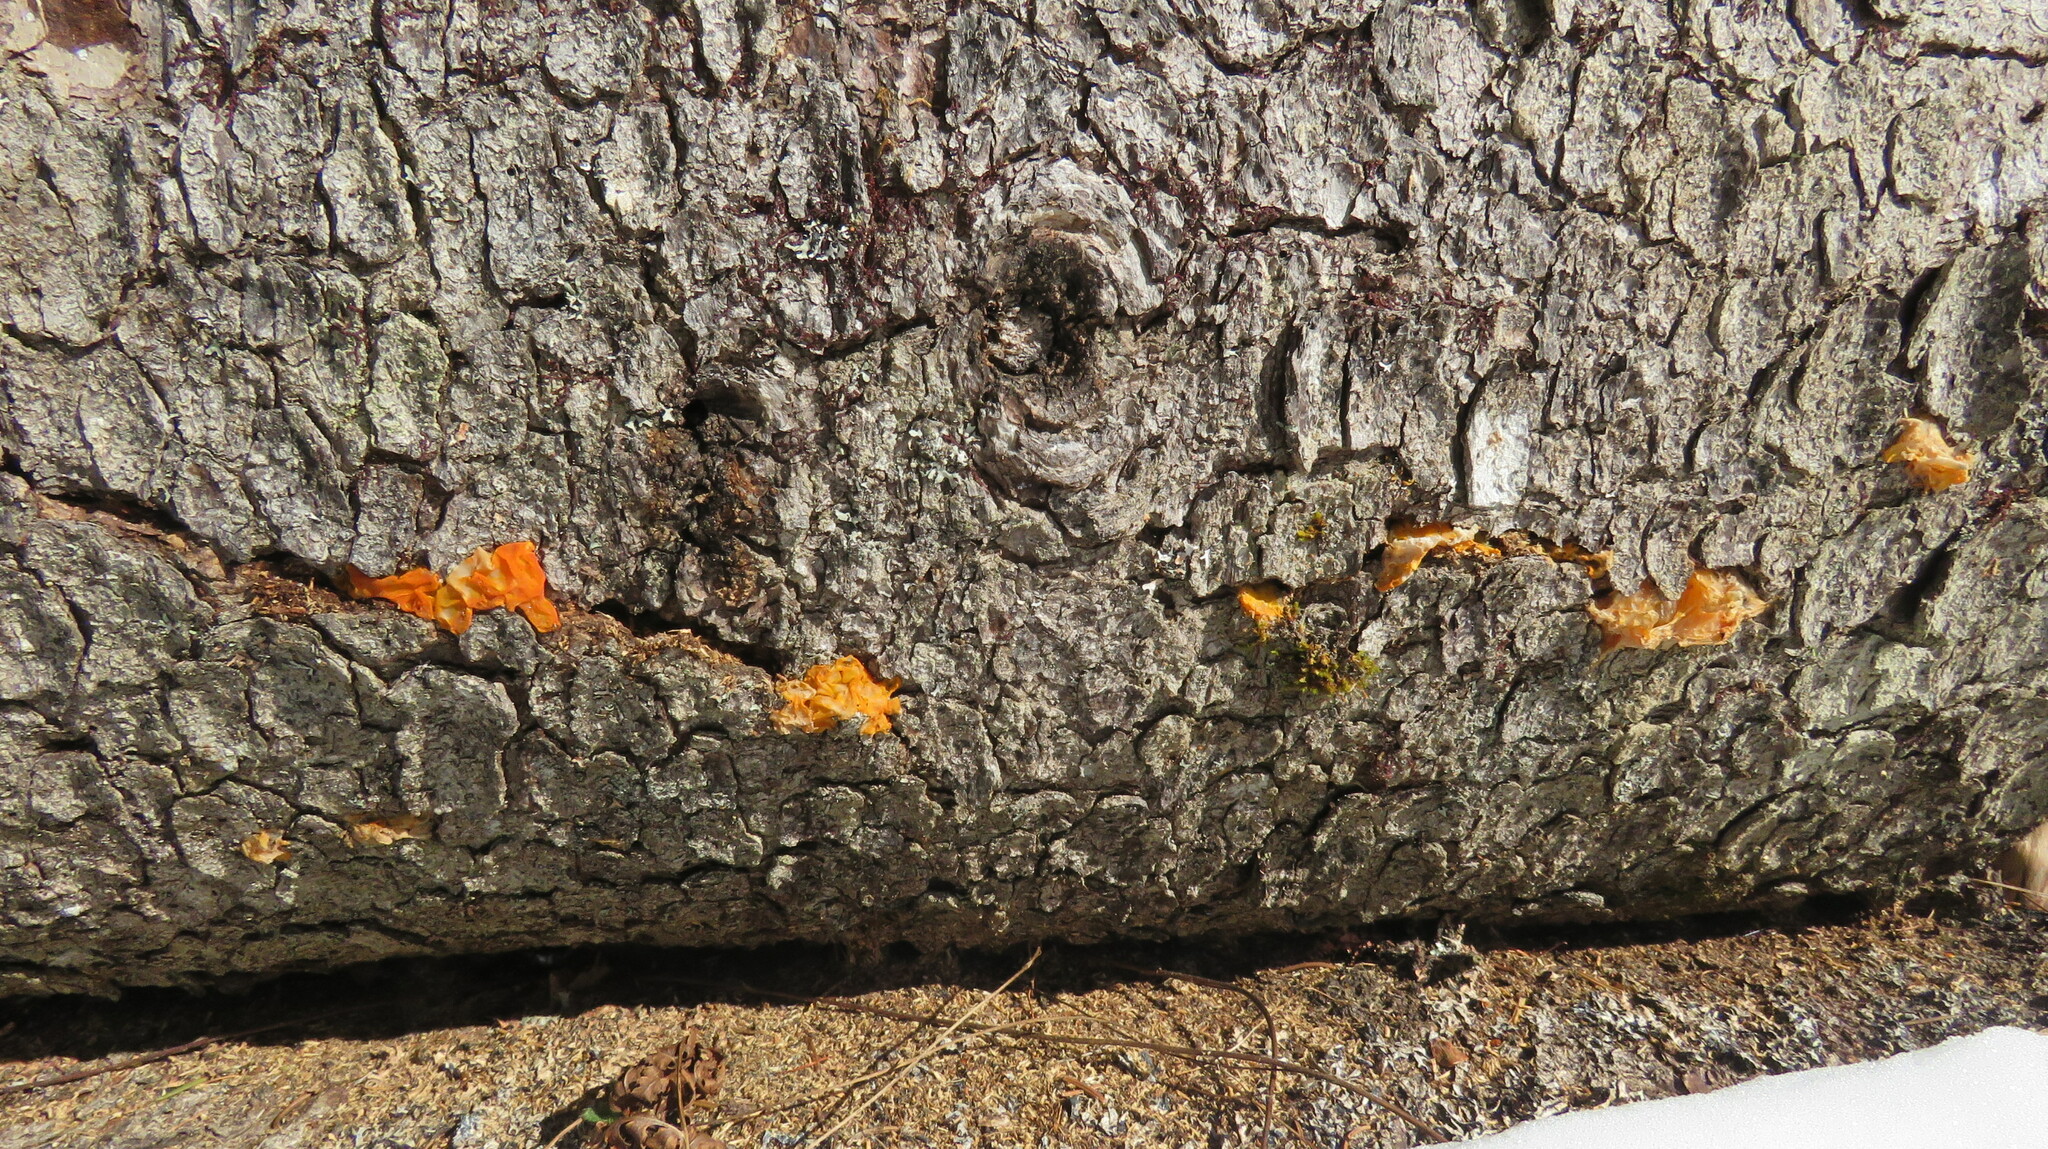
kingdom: Fungi
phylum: Basidiomycota
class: Dacrymycetes
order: Dacrymycetales
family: Dacrymycetaceae
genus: Dacrymyces
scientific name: Dacrymyces chrysospermus
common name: Orange jelly spot
